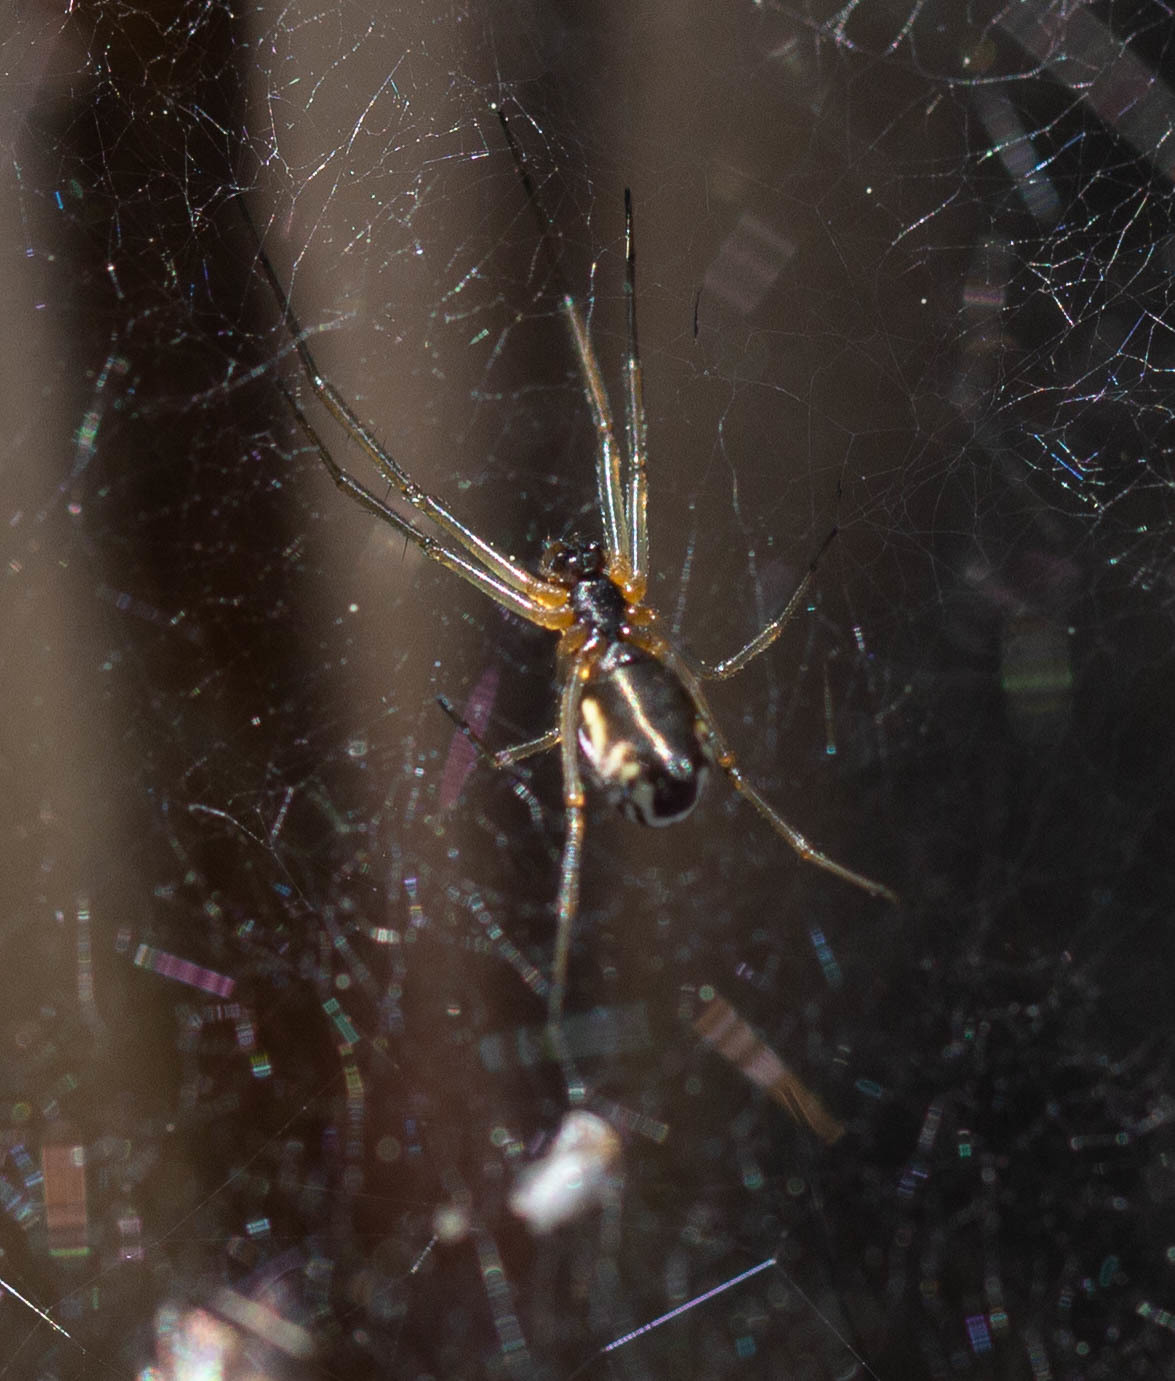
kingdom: Animalia
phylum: Arthropoda
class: Arachnida
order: Araneae
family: Linyphiidae
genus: Frontinella
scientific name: Frontinella pyramitela
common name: Bowl-and-doily spider
